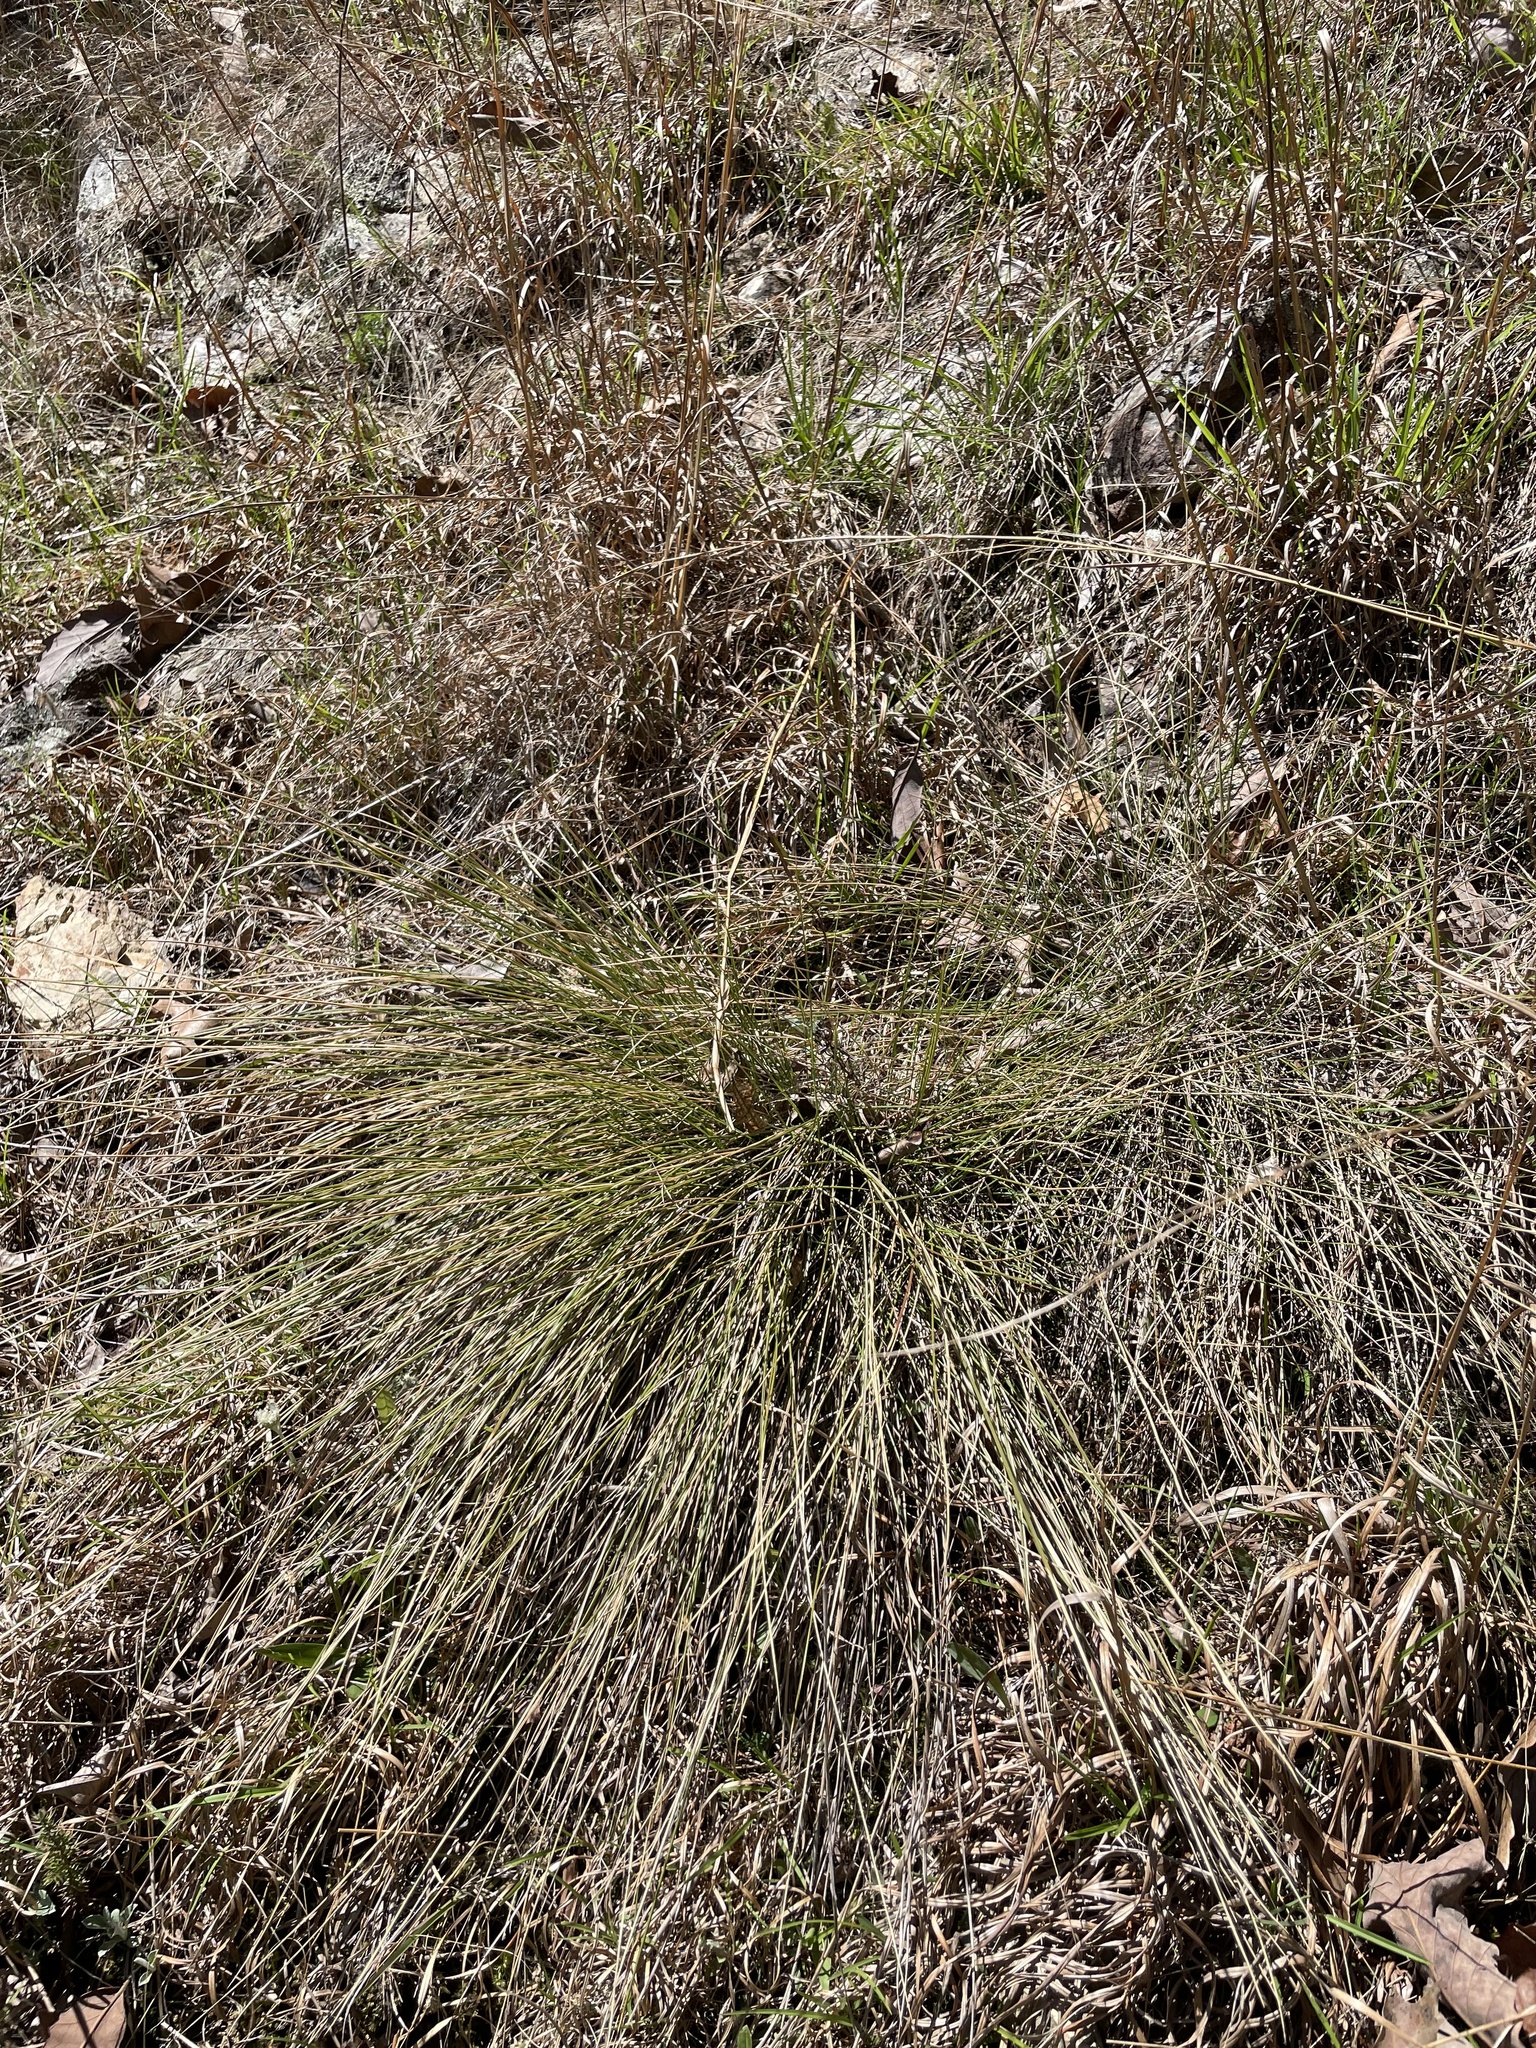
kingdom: Plantae
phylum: Tracheophyta
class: Liliopsida
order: Poales
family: Poaceae
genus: Muhlenbergia
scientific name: Muhlenbergia capillaris
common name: Purple grass
